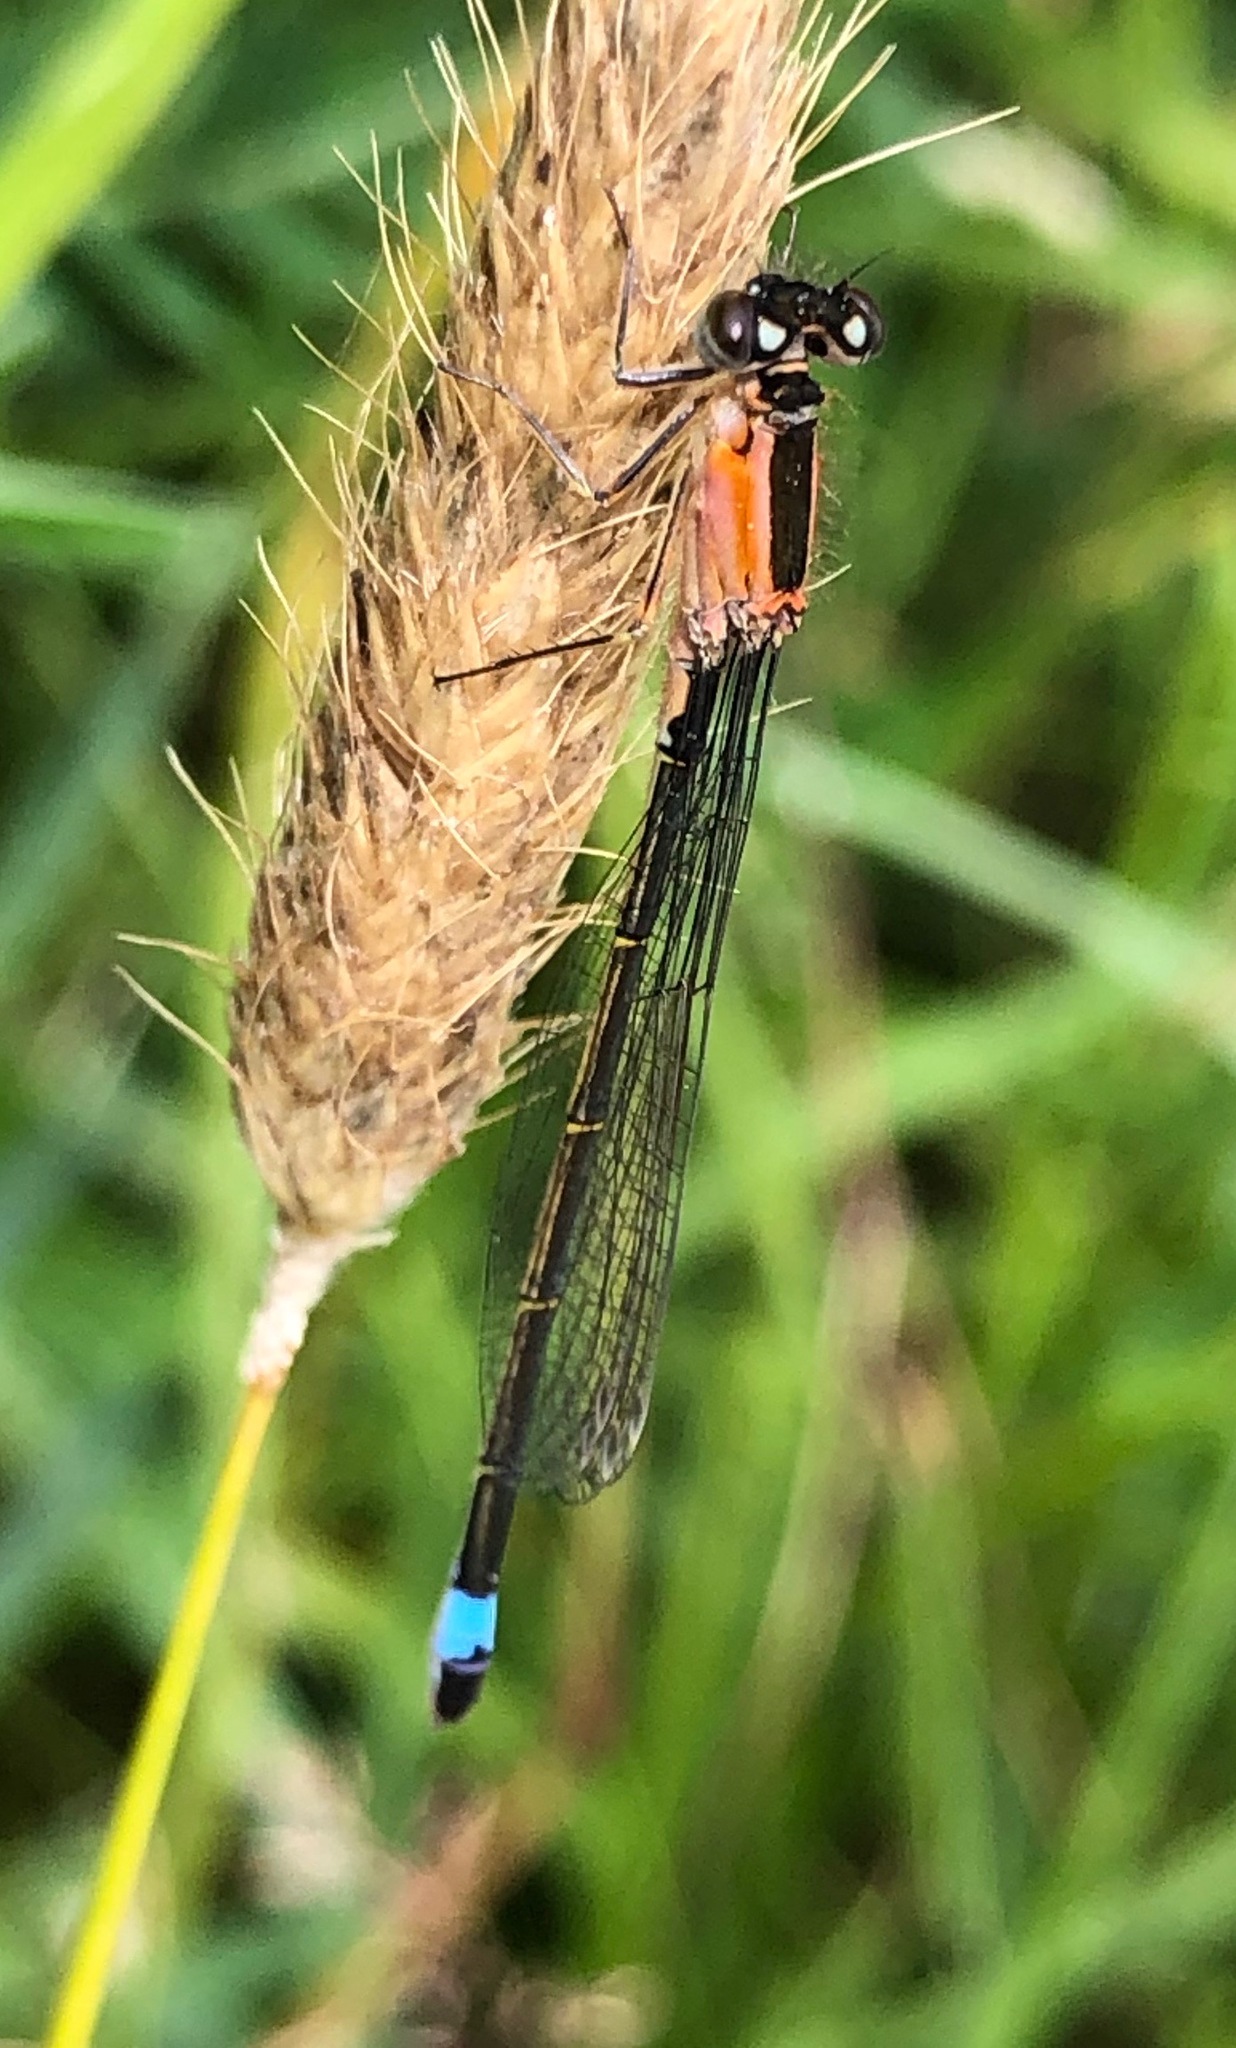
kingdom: Animalia
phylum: Arthropoda
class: Insecta
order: Odonata
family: Coenagrionidae
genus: Ischnura
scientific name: Ischnura elegans
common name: Blue-tailed damselfly
